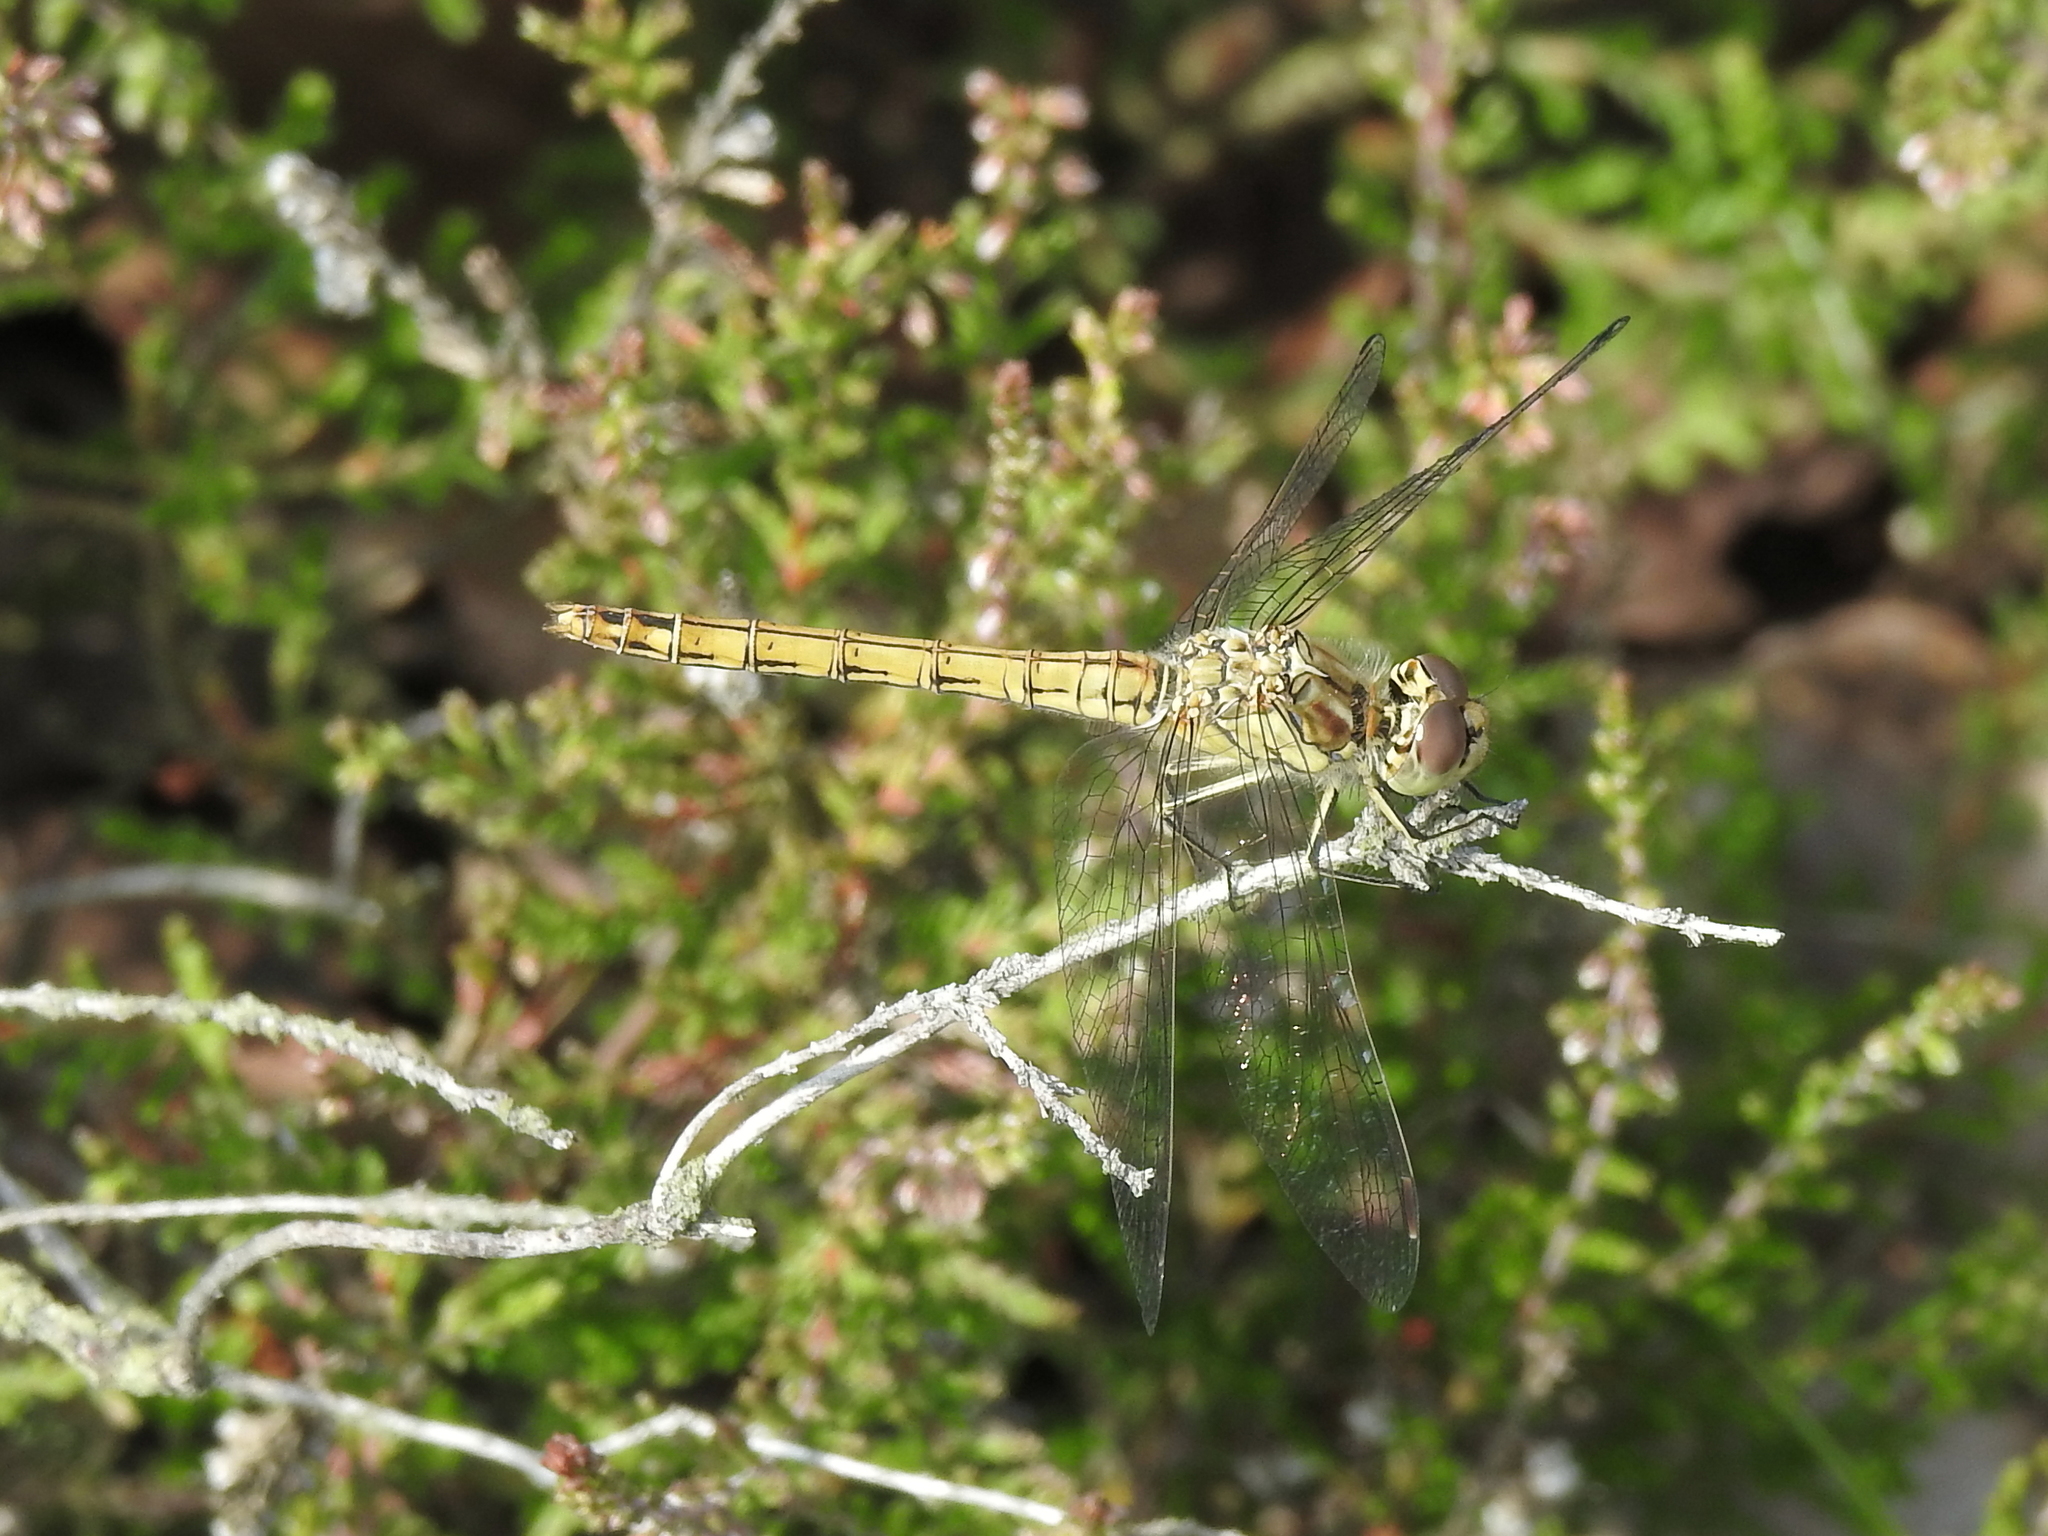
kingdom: Animalia
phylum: Arthropoda
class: Insecta
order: Odonata
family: Libellulidae
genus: Sympetrum
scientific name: Sympetrum vulgatum
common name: Vagrant darter
